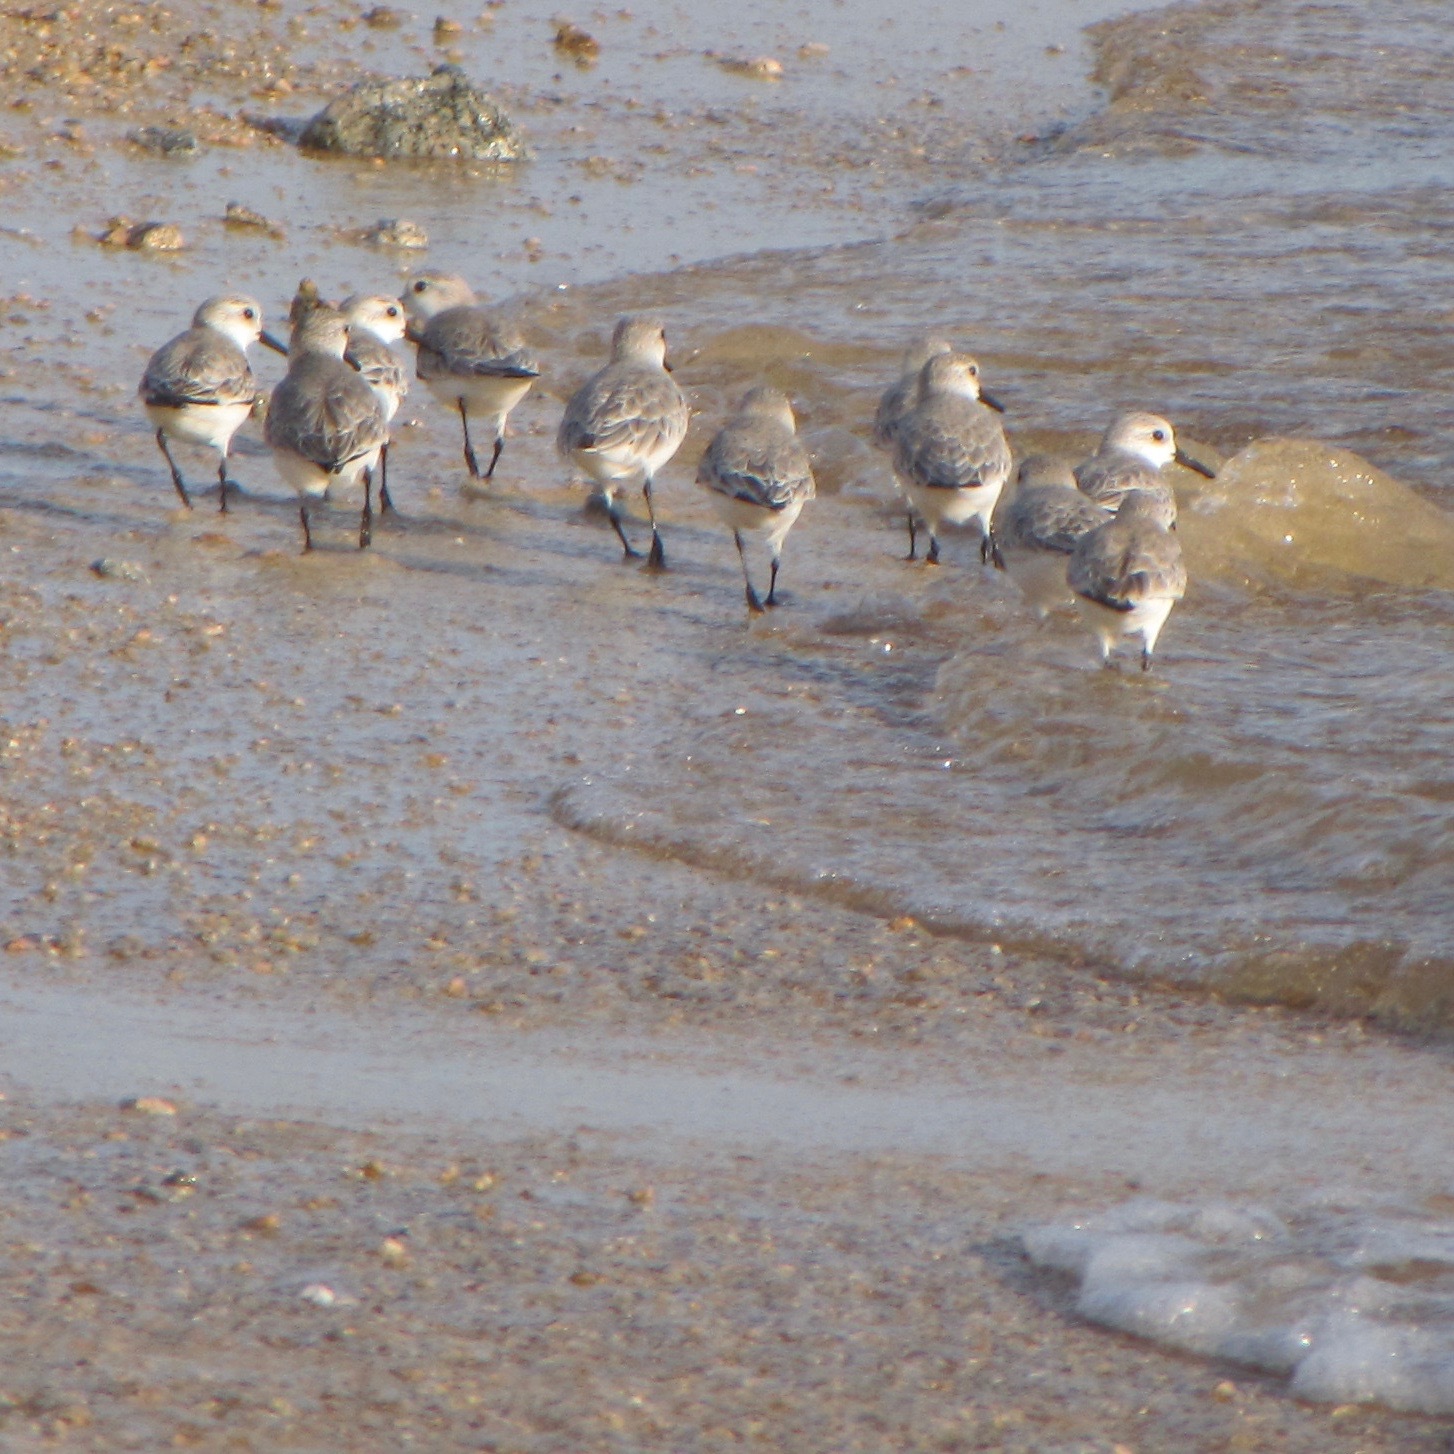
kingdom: Animalia
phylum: Chordata
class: Aves
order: Charadriiformes
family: Scolopacidae
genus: Calidris
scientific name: Calidris alba
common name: Sanderling
